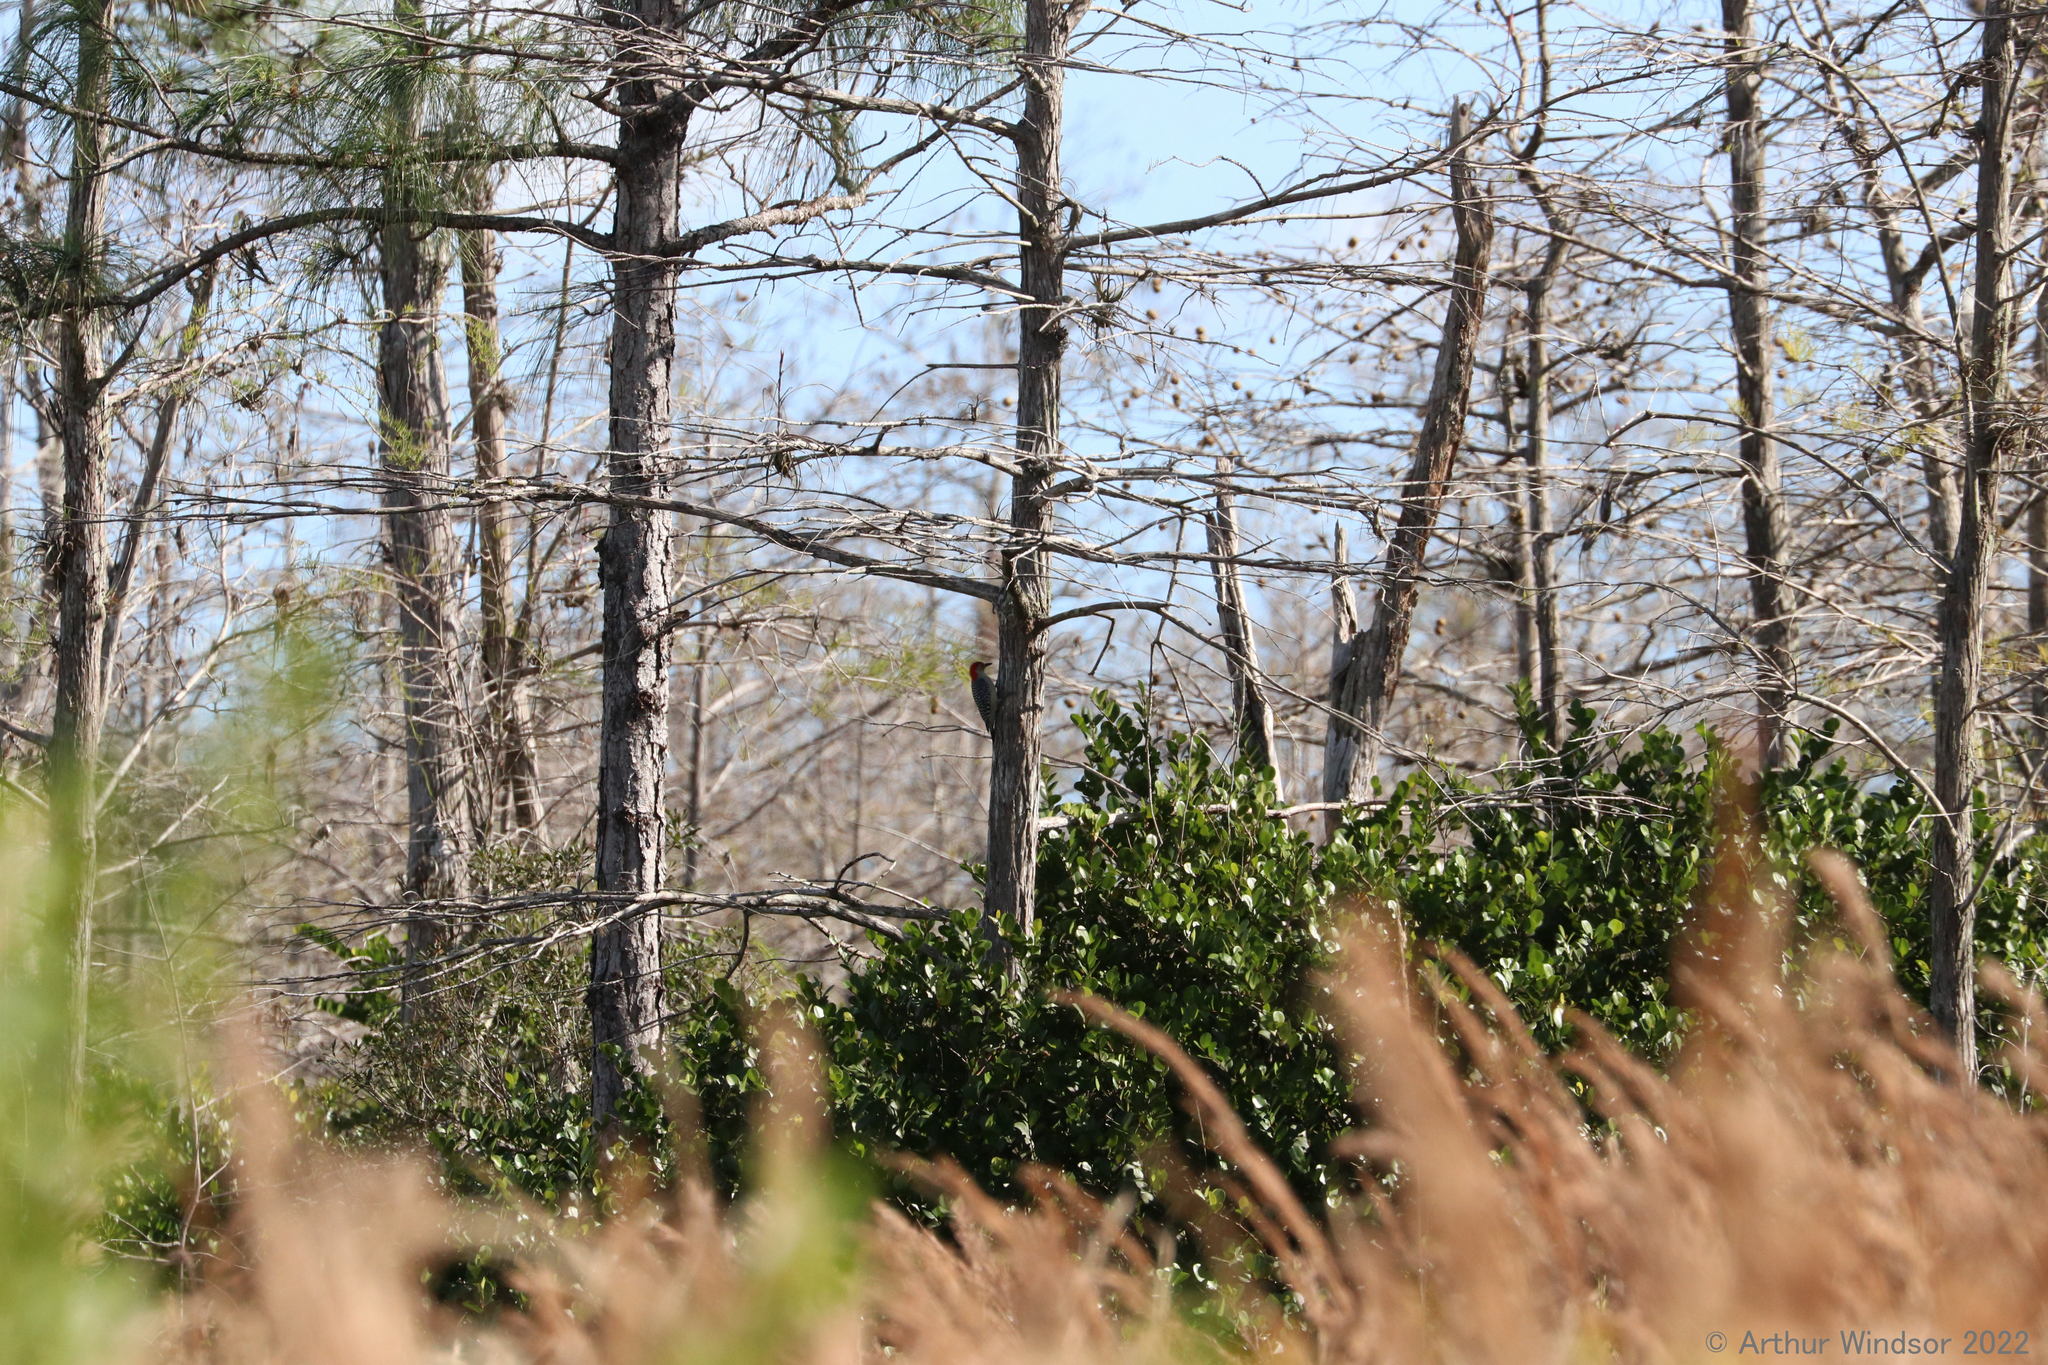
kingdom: Animalia
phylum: Chordata
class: Aves
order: Piciformes
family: Picidae
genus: Melanerpes
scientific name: Melanerpes carolinus
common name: Red-bellied woodpecker
